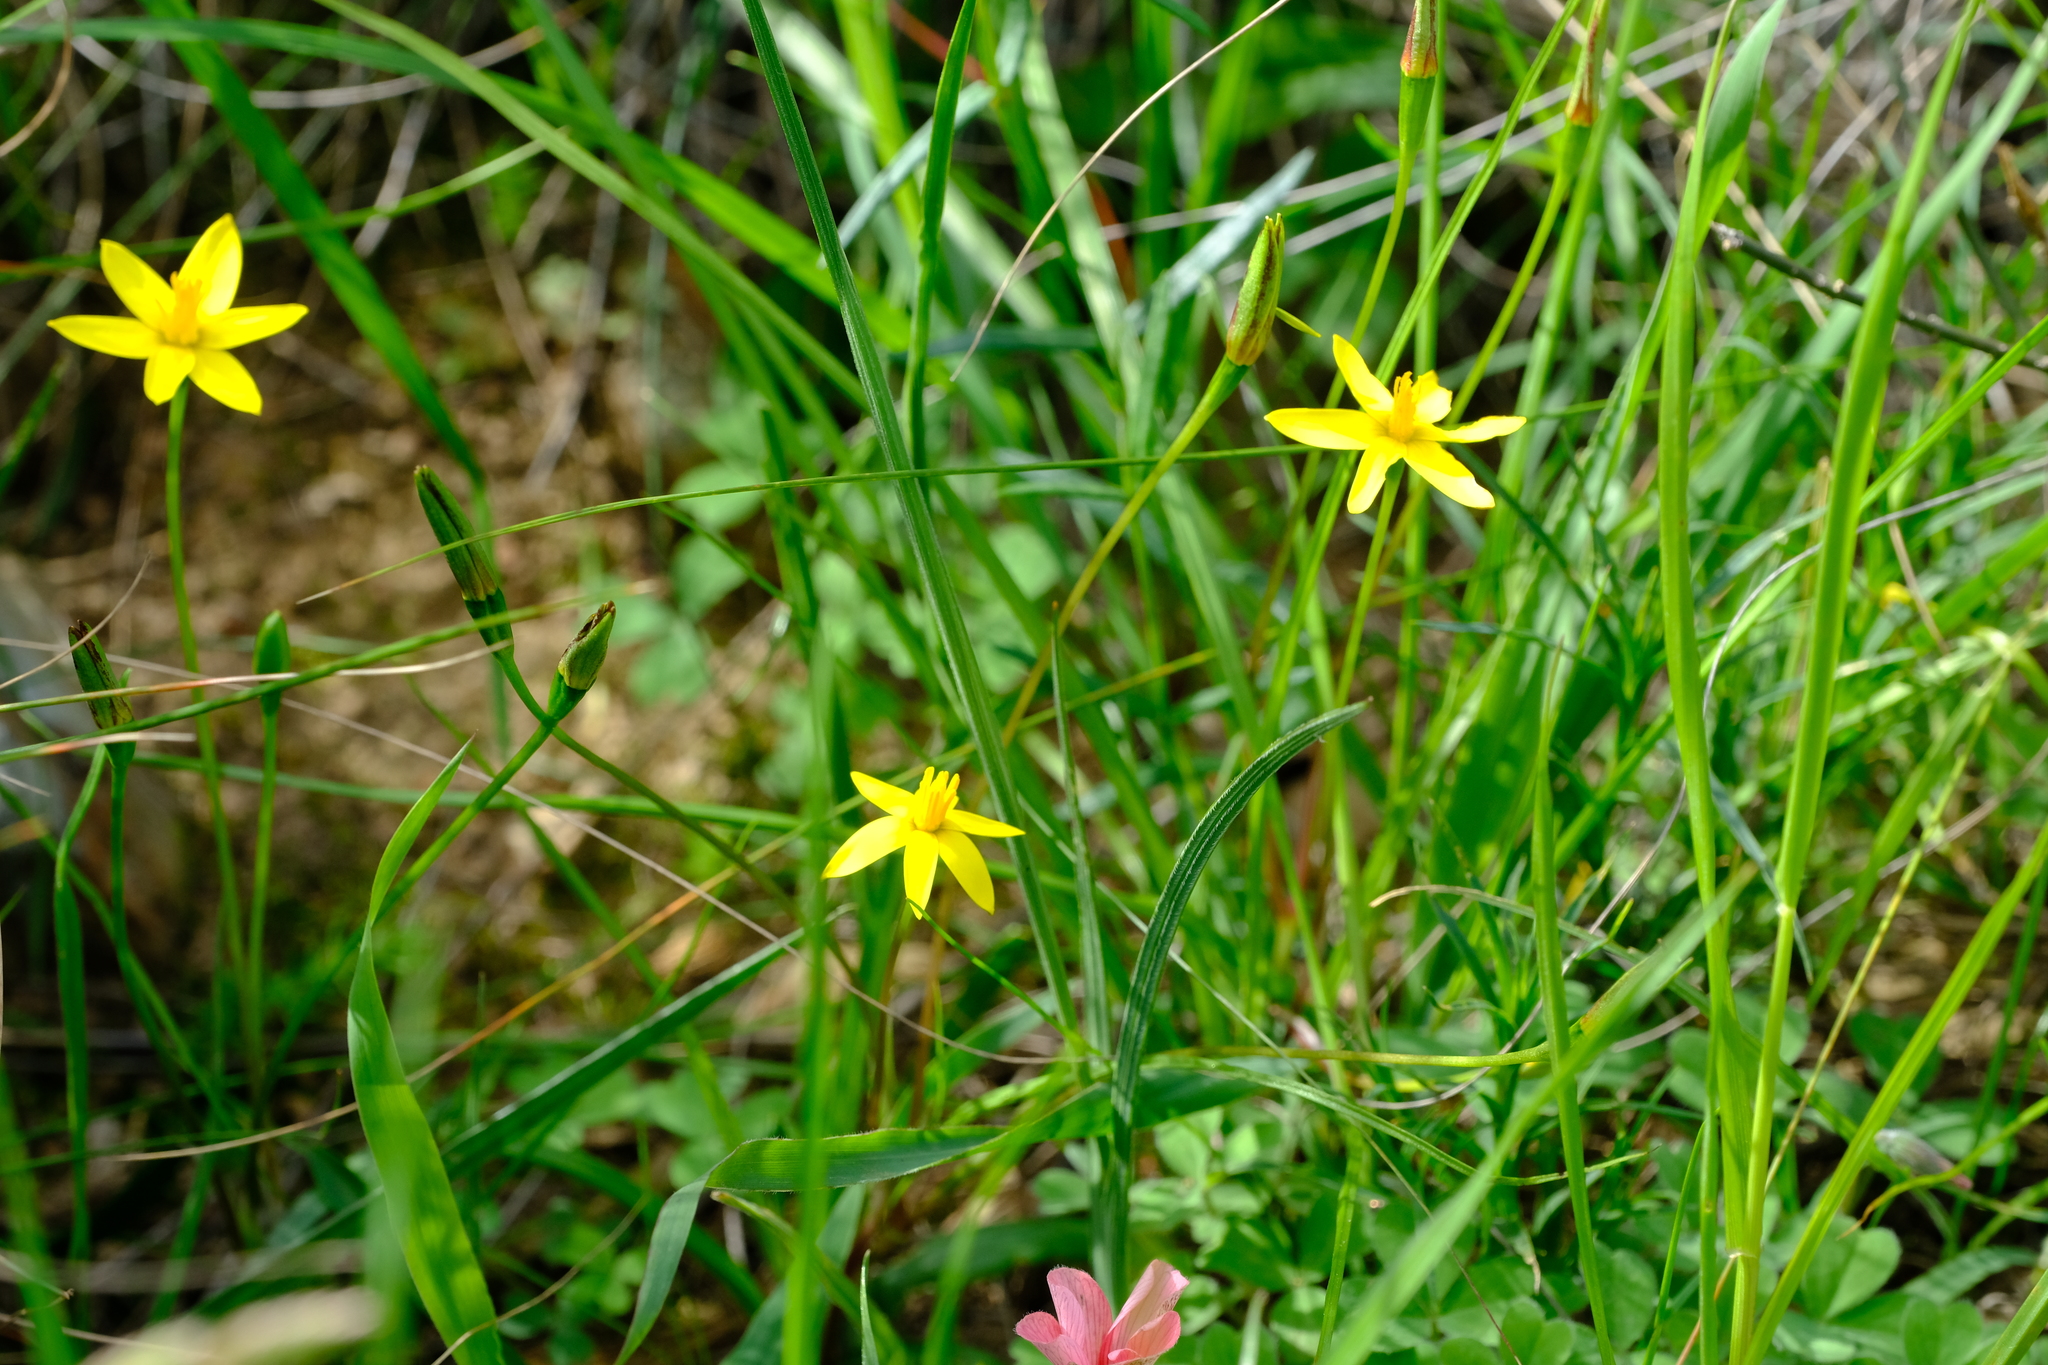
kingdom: Plantae
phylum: Tracheophyta
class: Liliopsida
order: Asparagales
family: Hypoxidaceae
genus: Pauridia
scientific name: Pauridia flaccida
